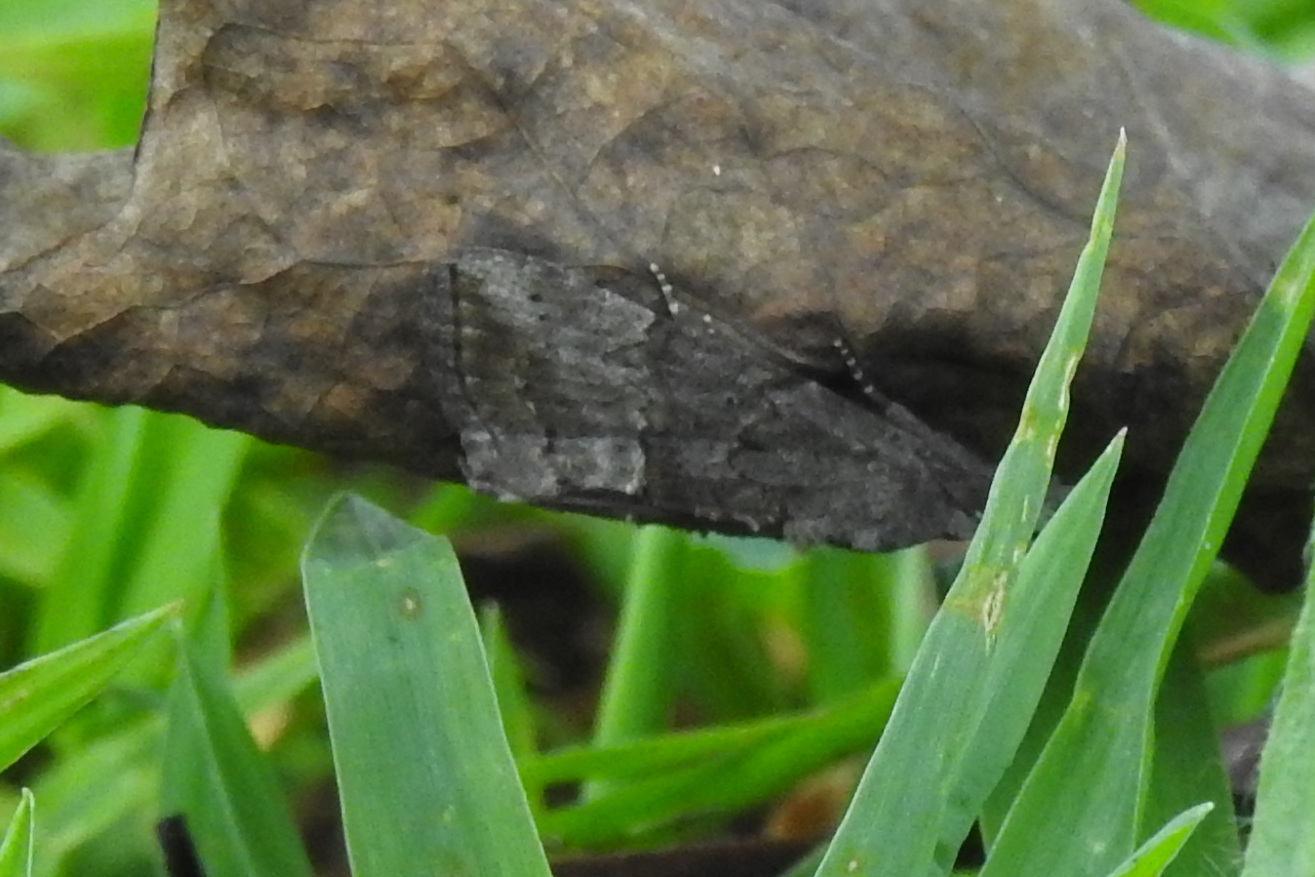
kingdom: Animalia
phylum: Arthropoda
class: Insecta
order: Lepidoptera
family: Erebidae
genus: Hypena
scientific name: Hypena scabra
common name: Green cloverworm
